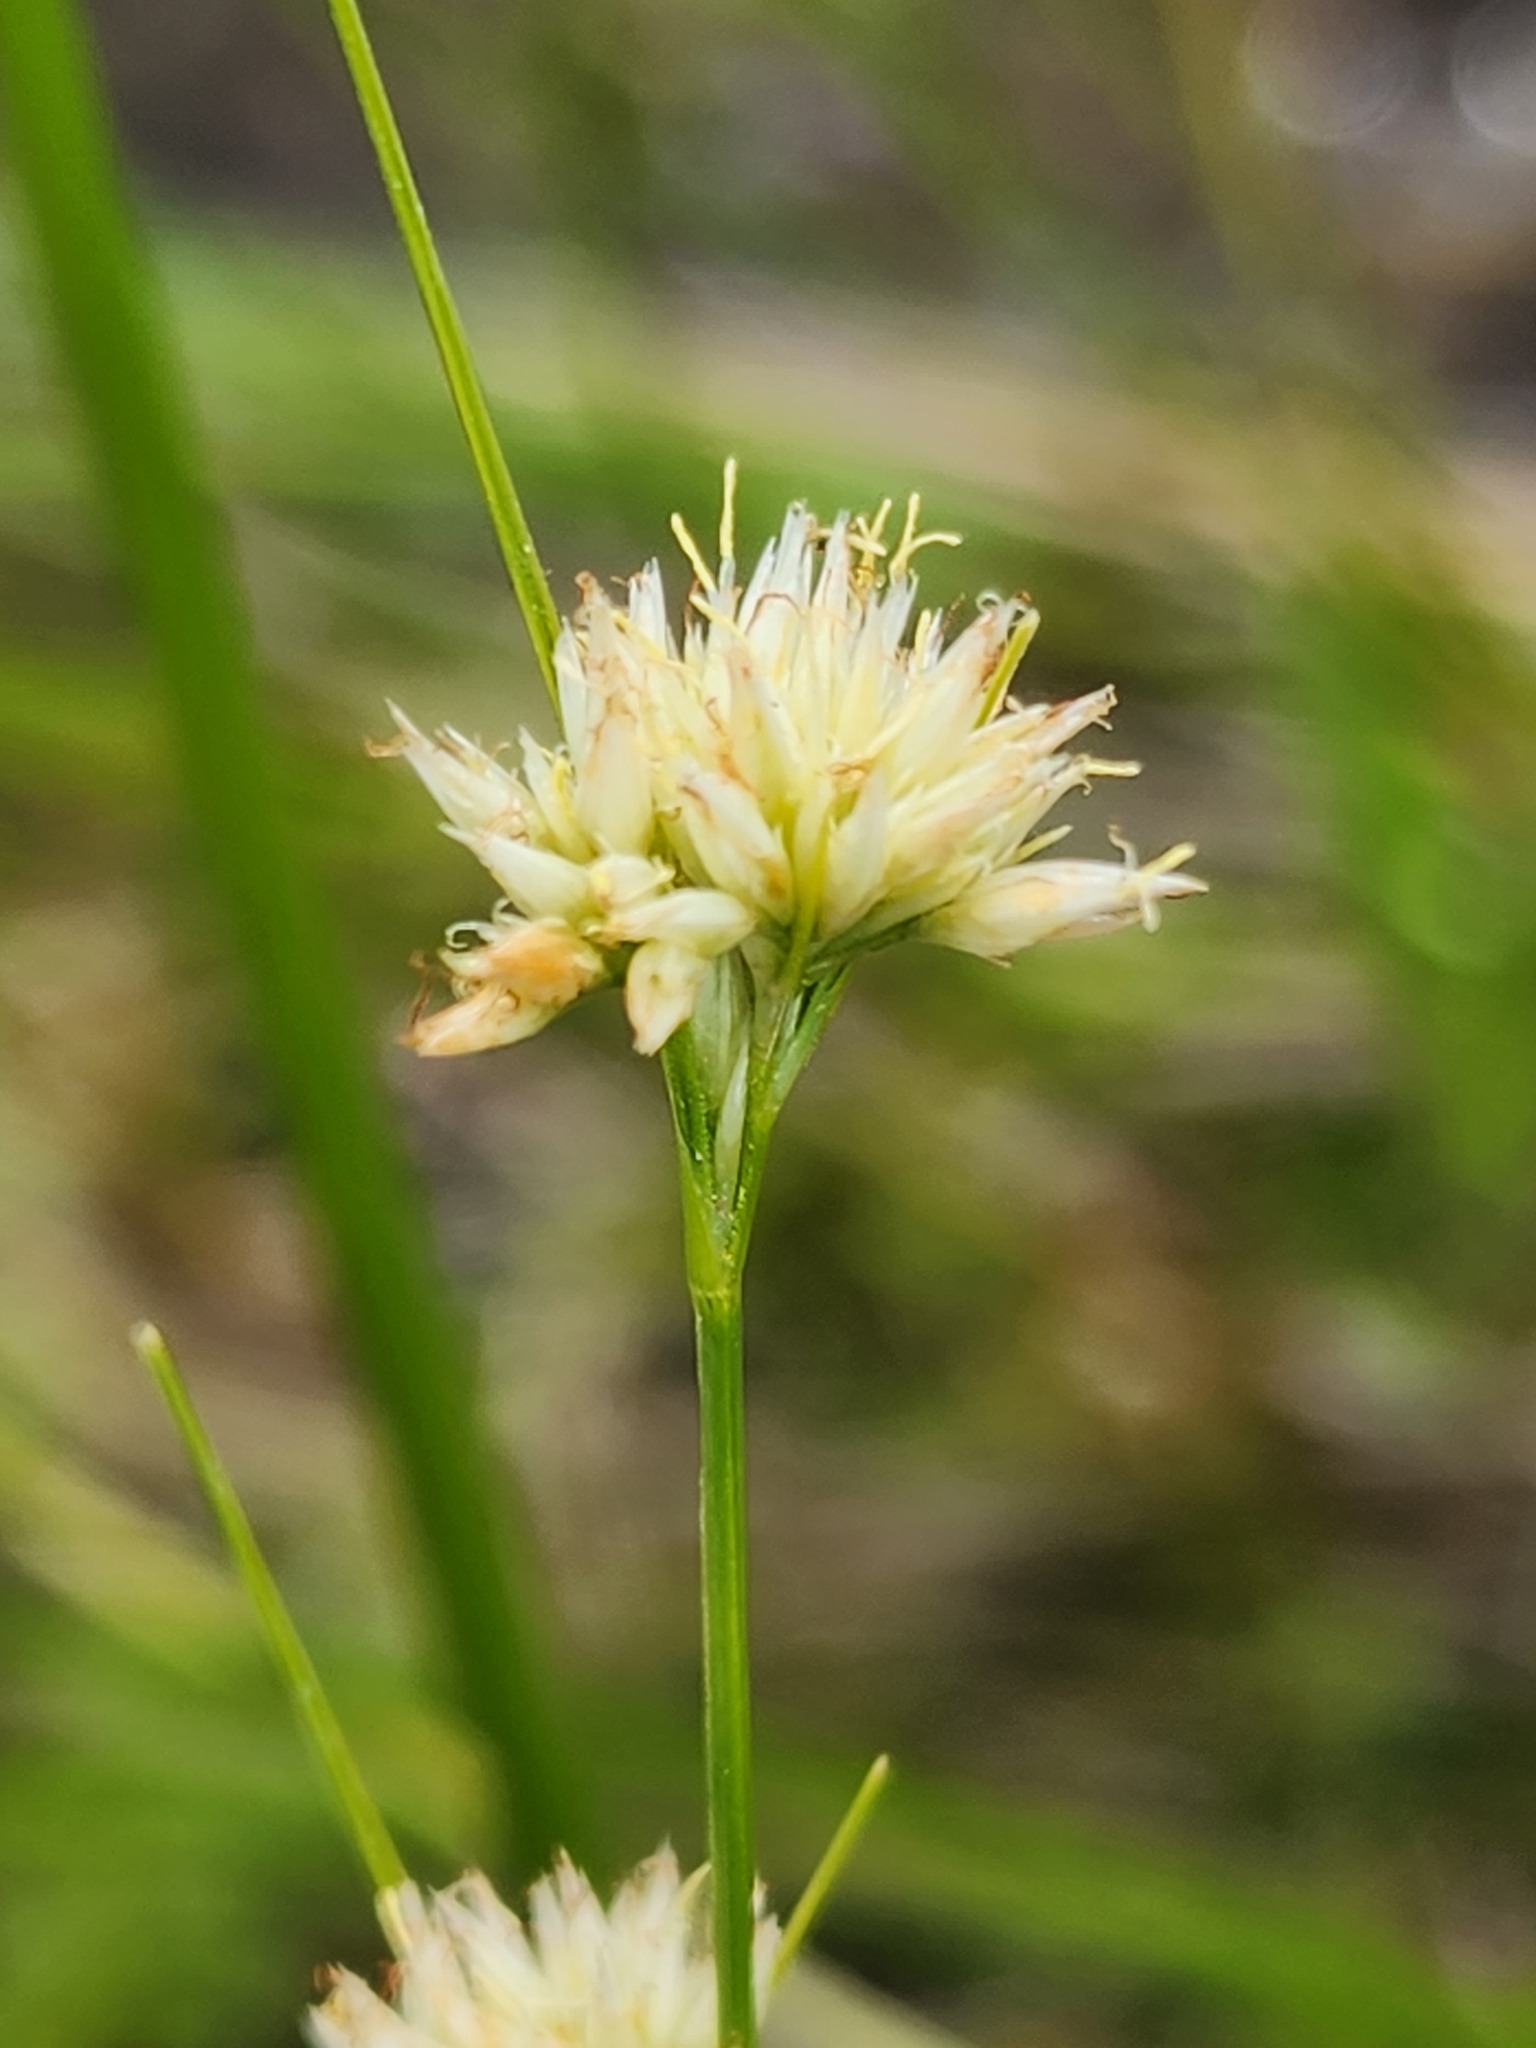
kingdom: Plantae
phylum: Tracheophyta
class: Liliopsida
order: Poales
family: Cyperaceae
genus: Rhynchospora
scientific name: Rhynchospora alba
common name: White beak-sedge
